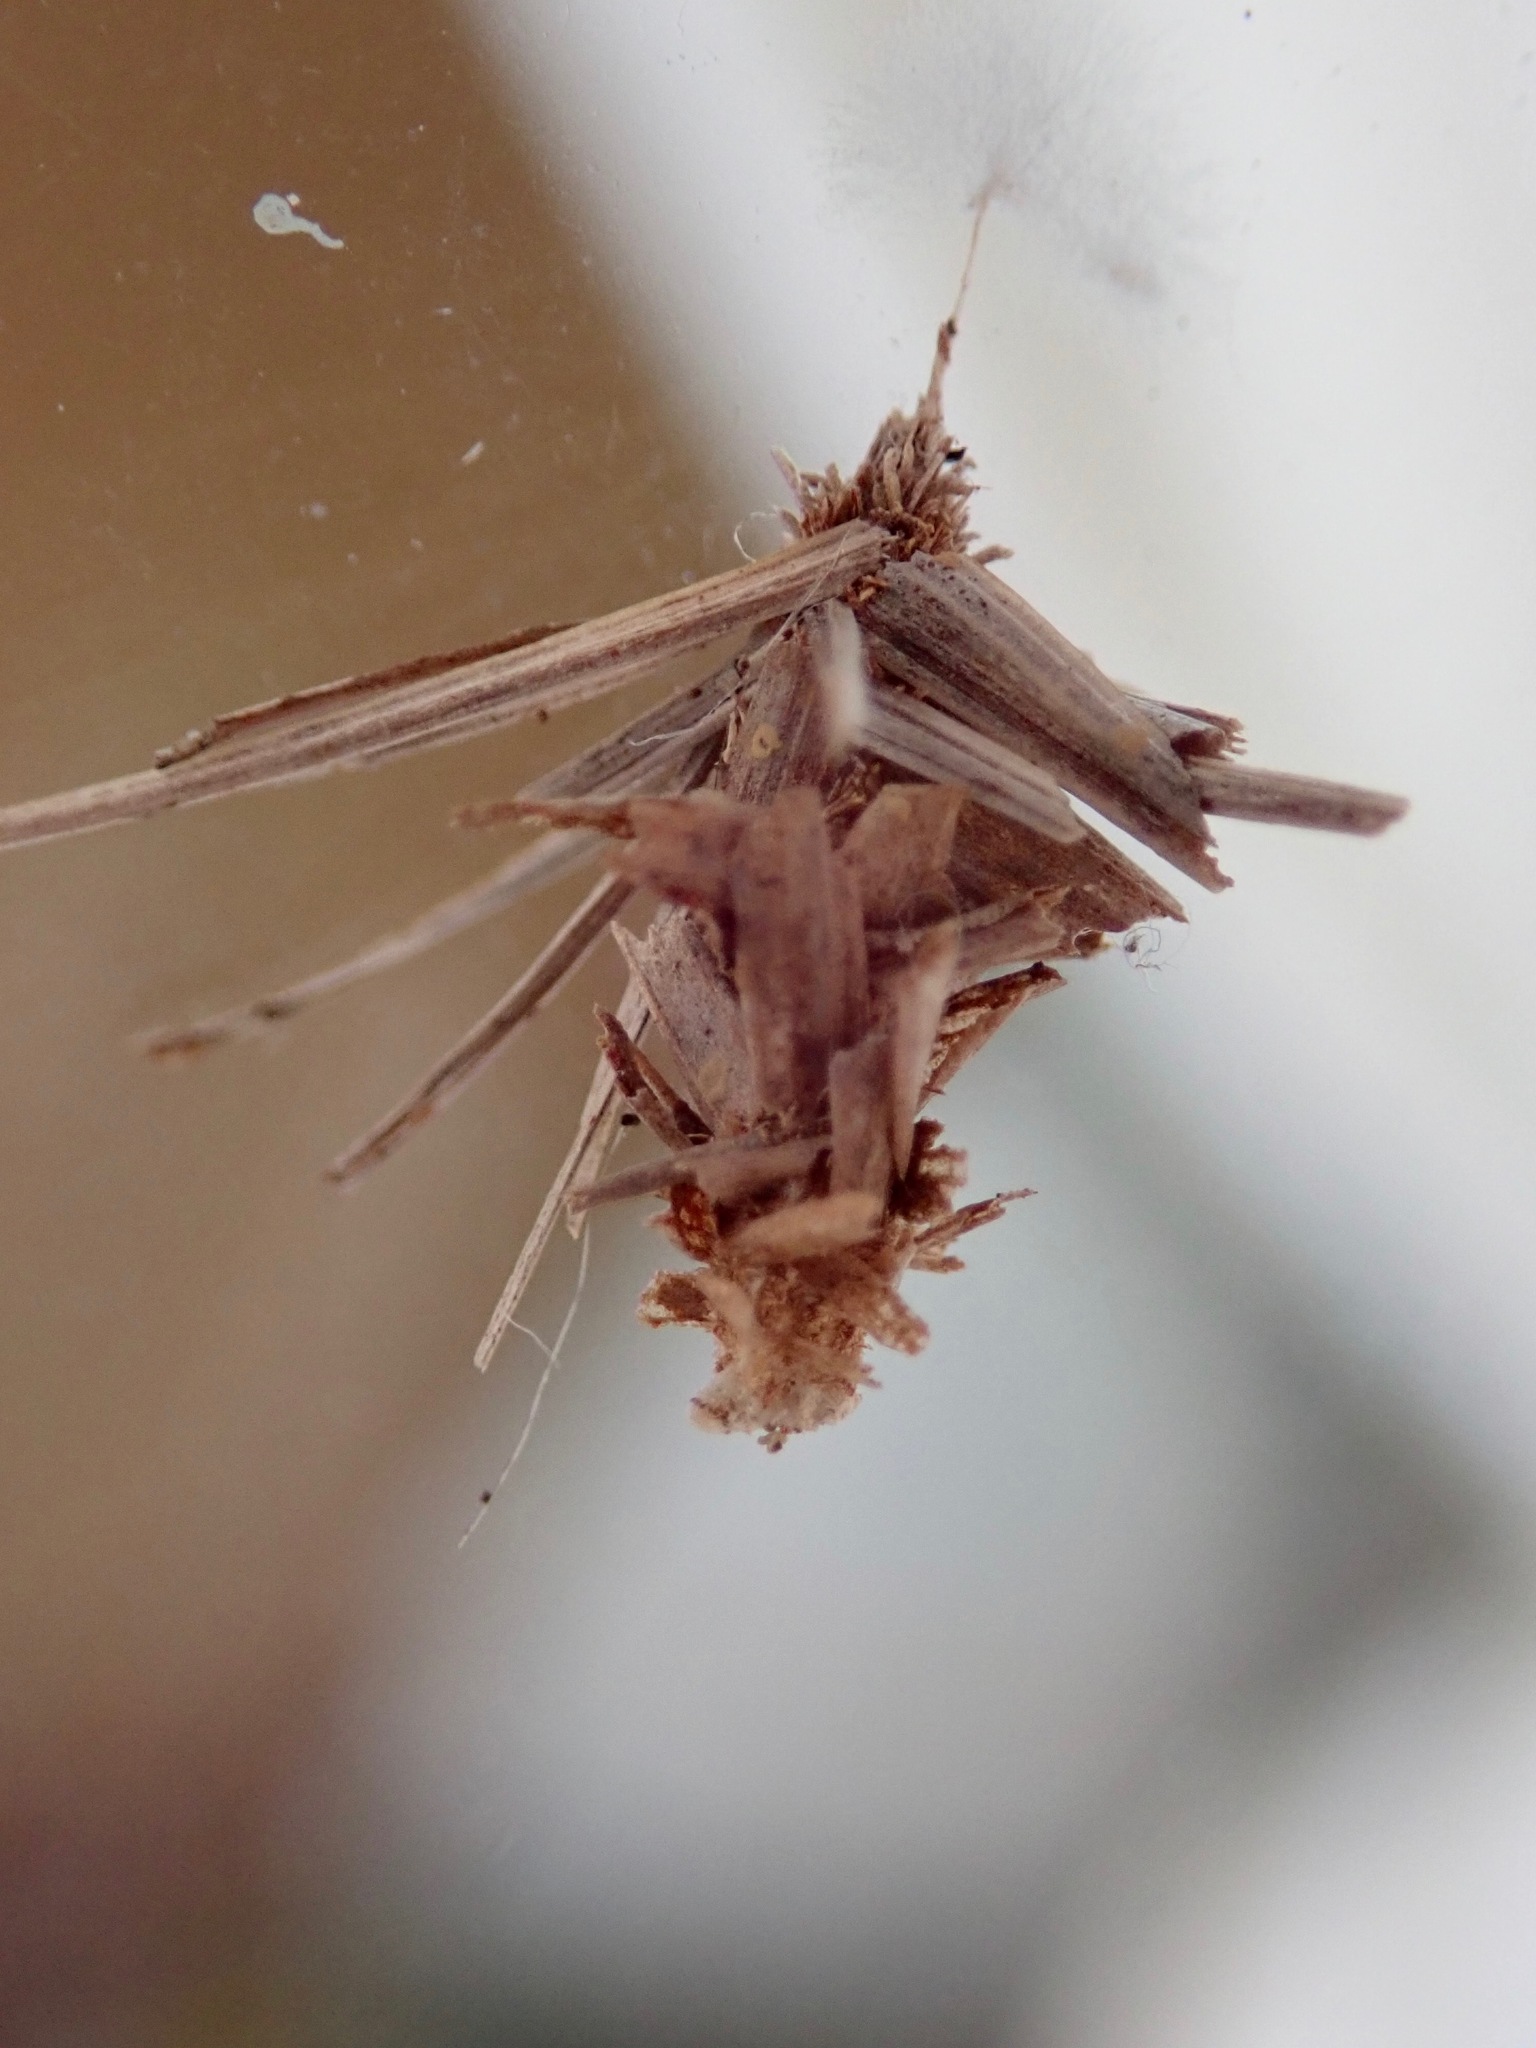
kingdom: Animalia
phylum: Arthropoda
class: Insecta
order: Lepidoptera
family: Psychidae
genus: Brachycyttarus
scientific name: Brachycyttarus griseus
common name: Grass bagworm
